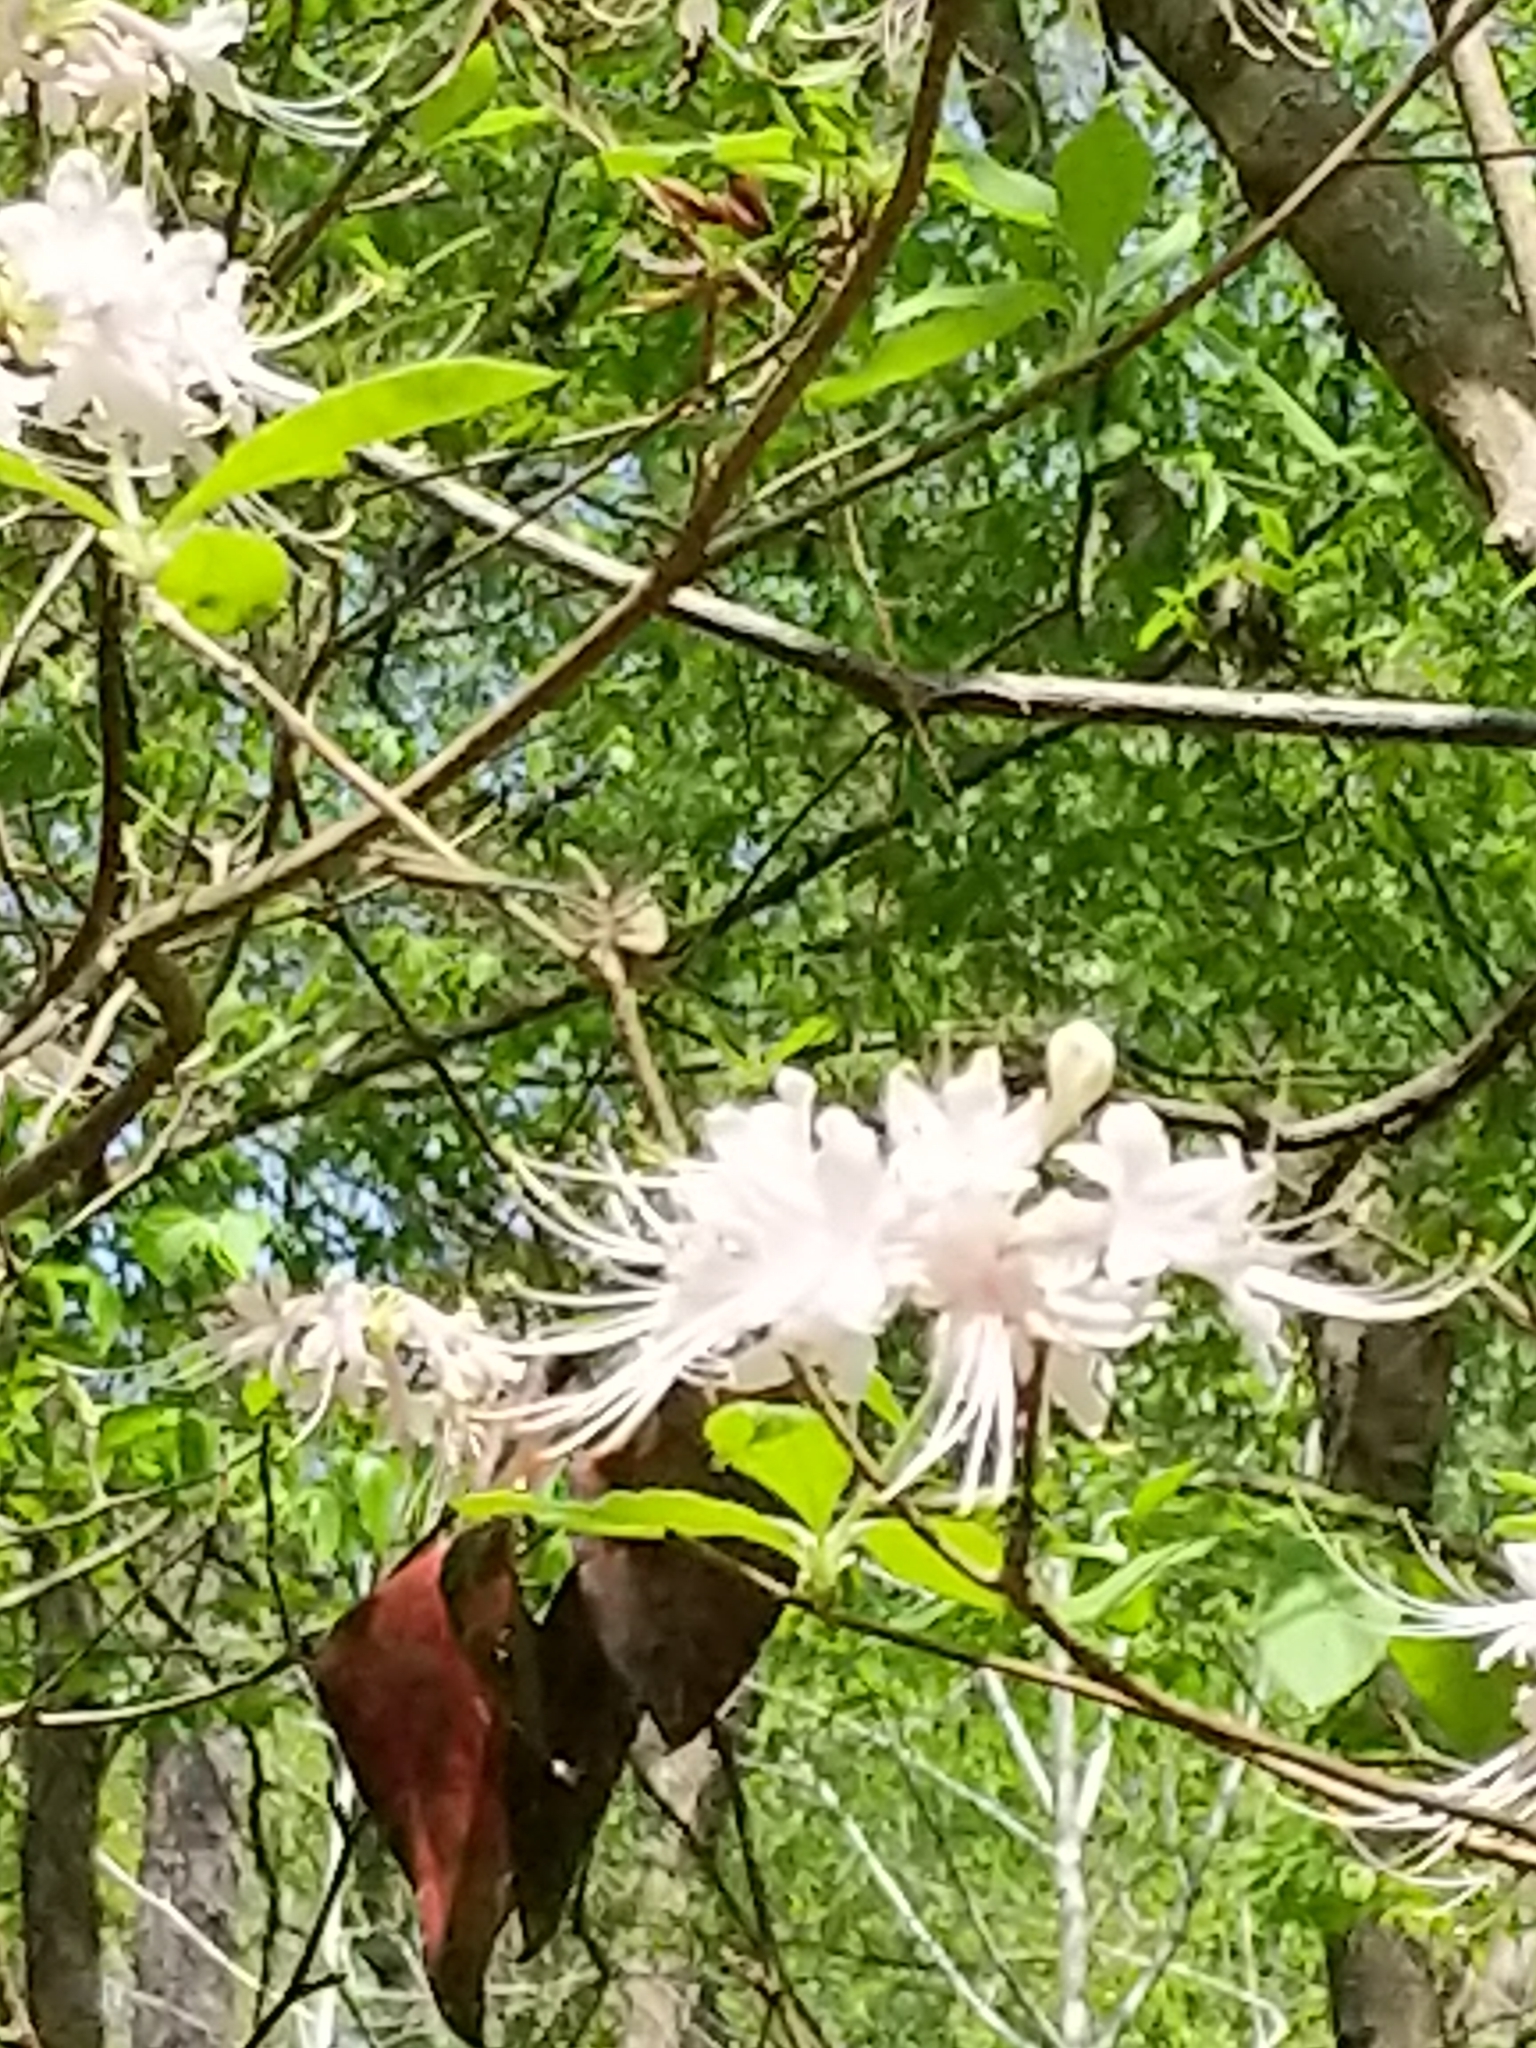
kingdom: Plantae
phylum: Tracheophyta
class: Magnoliopsida
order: Ericales
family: Ericaceae
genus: Rhododendron
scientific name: Rhododendron alabamense
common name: Alabama azalea
